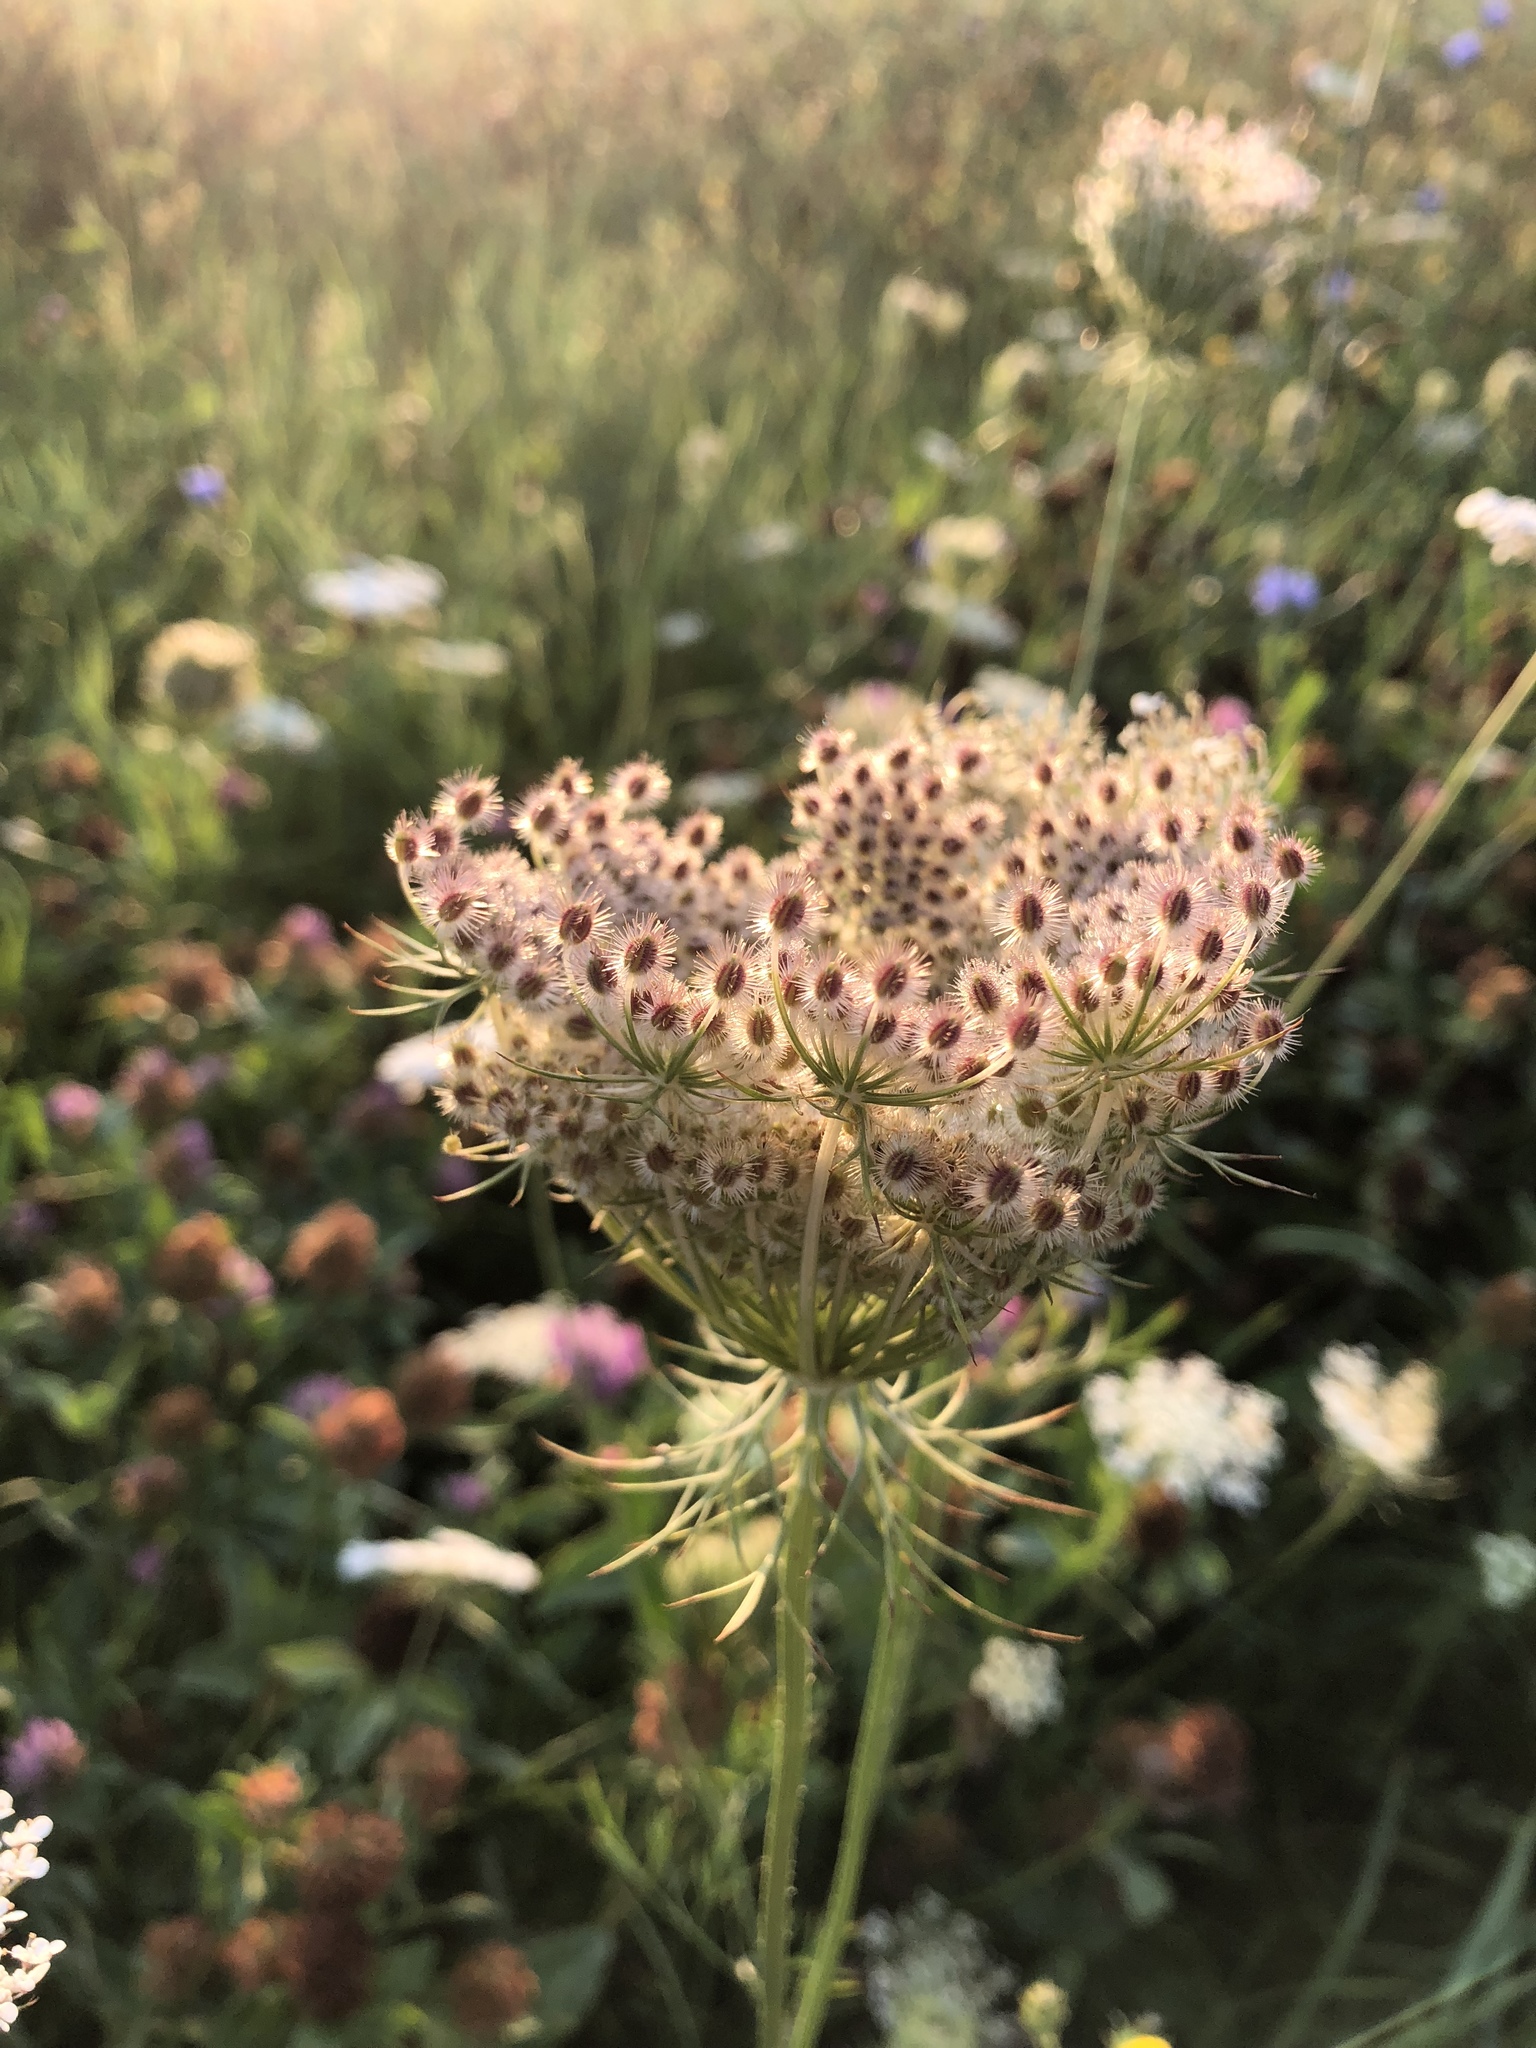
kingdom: Plantae
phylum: Tracheophyta
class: Magnoliopsida
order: Apiales
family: Apiaceae
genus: Daucus
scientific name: Daucus carota
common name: Wild carrot
